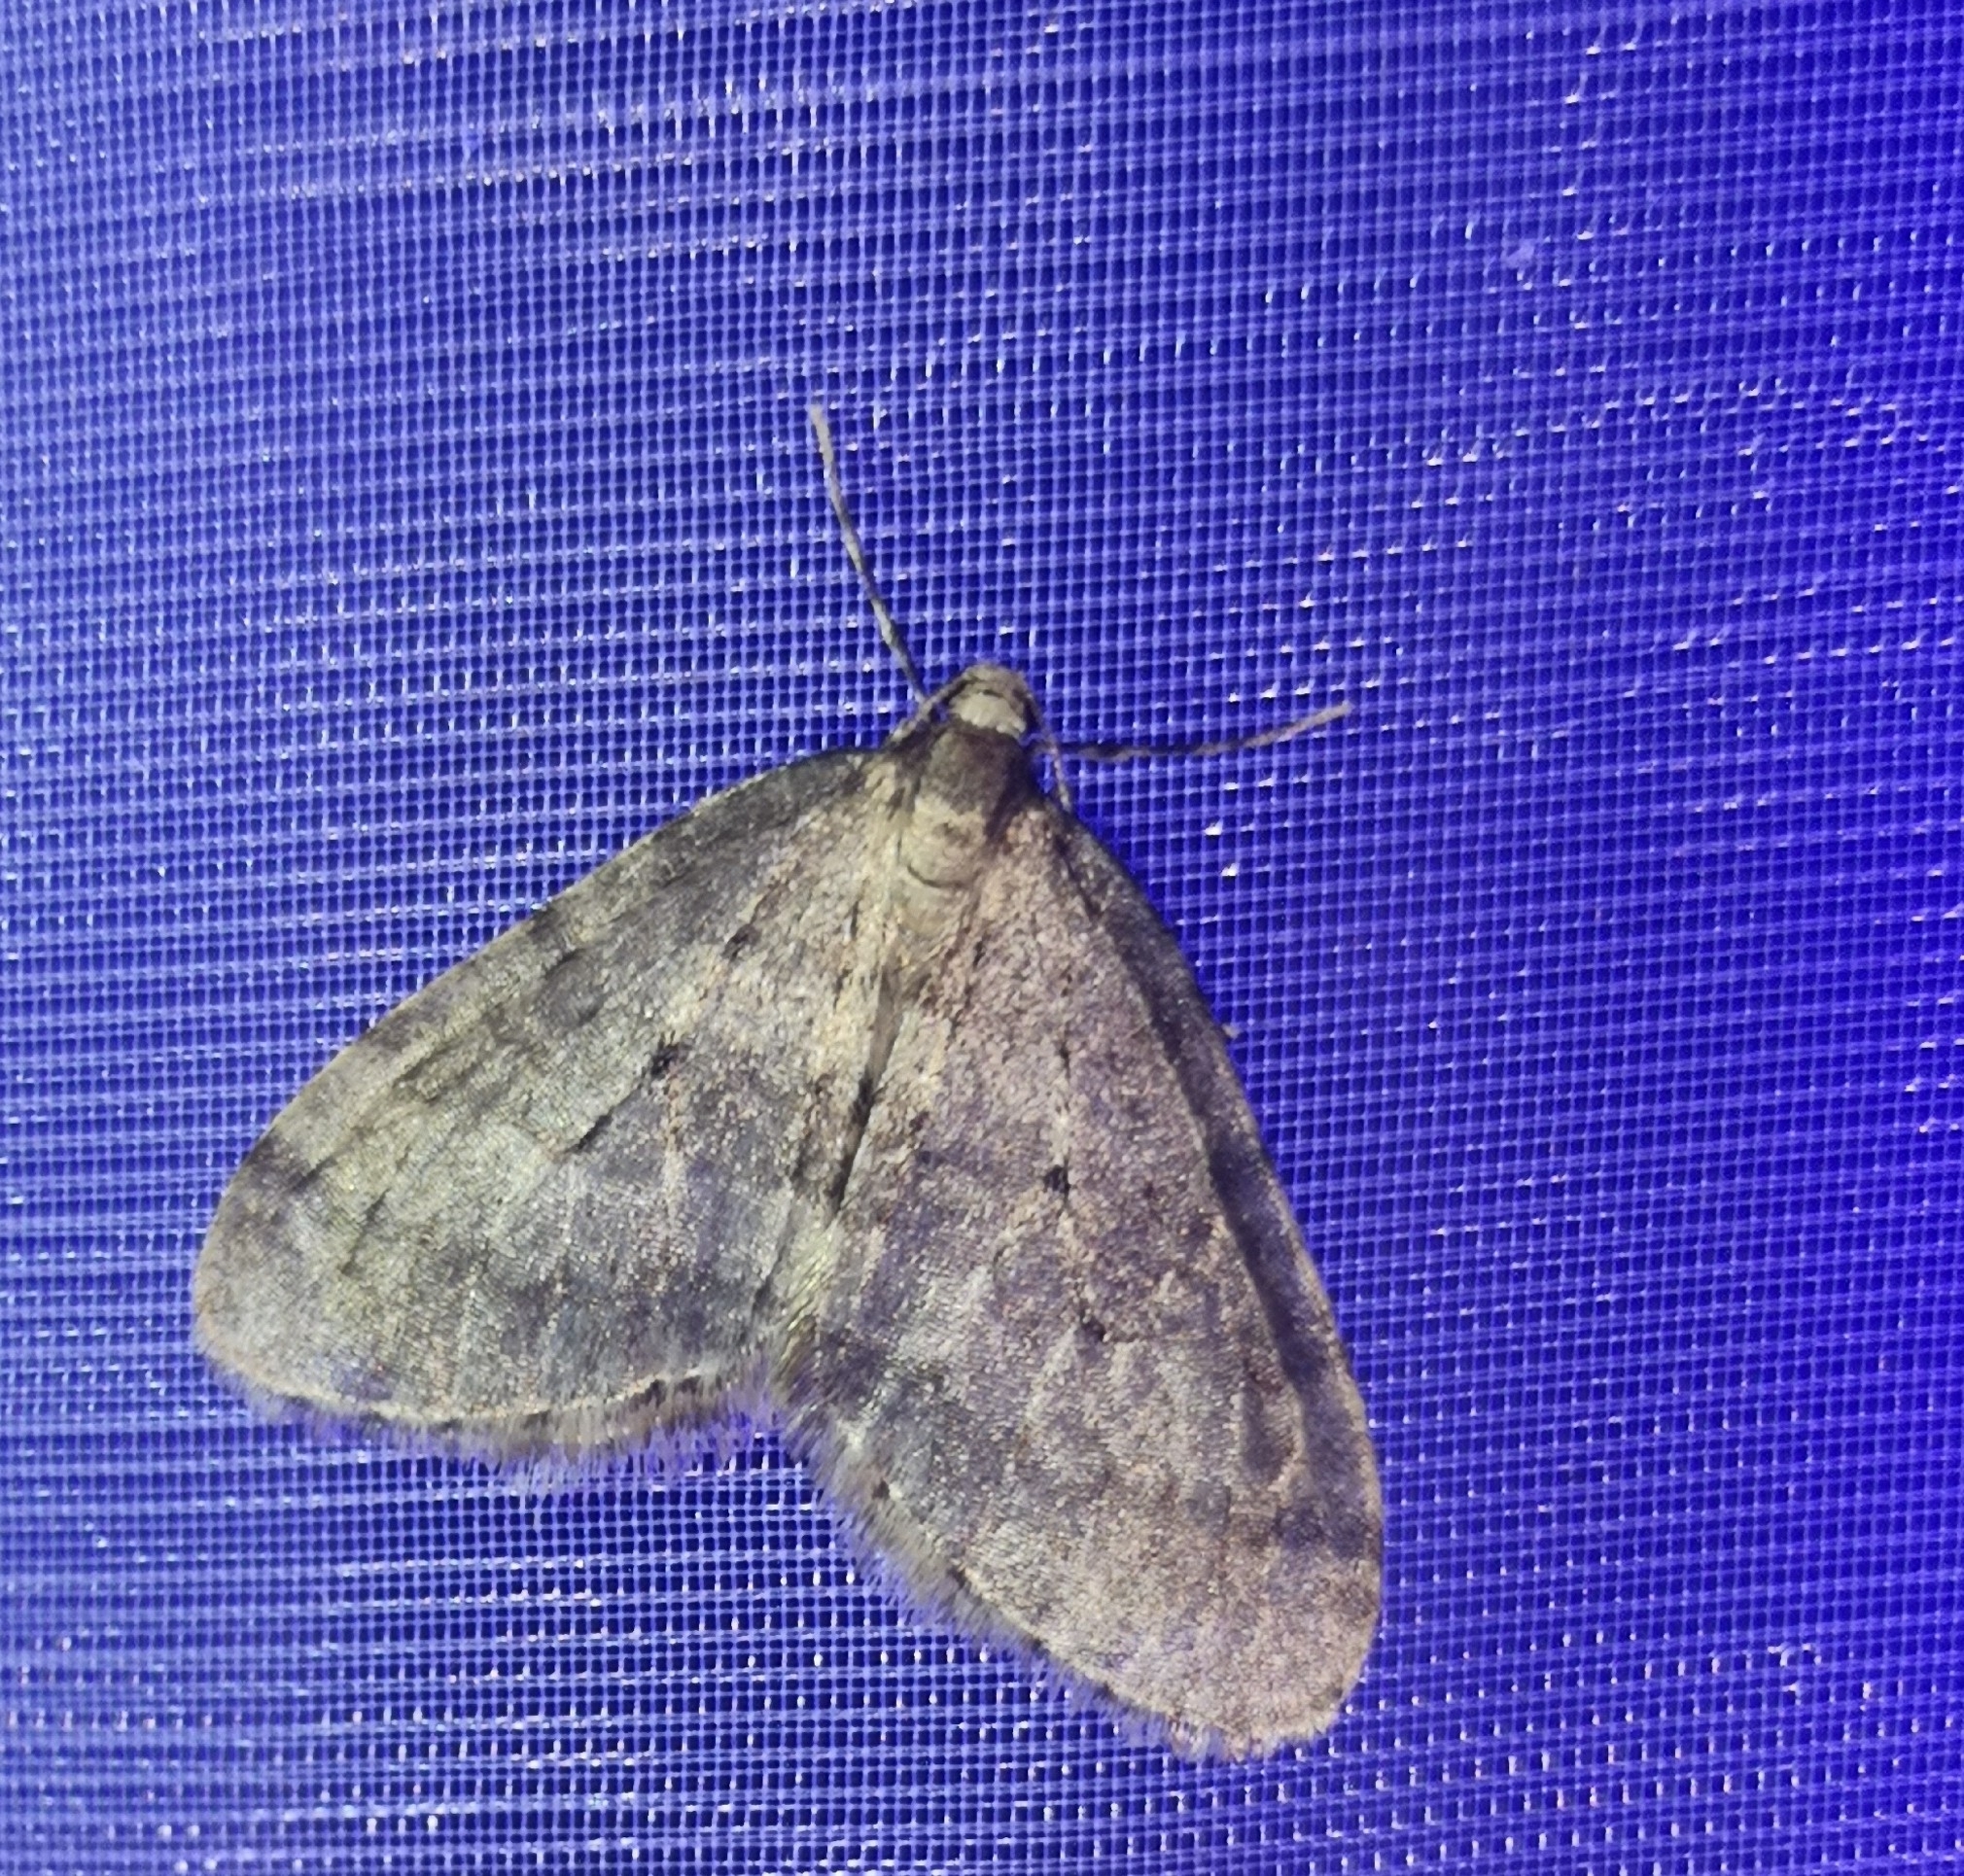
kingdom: Animalia
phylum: Arthropoda
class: Insecta
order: Lepidoptera
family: Geometridae
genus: Operophtera
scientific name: Operophtera brumata
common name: Winter moth
